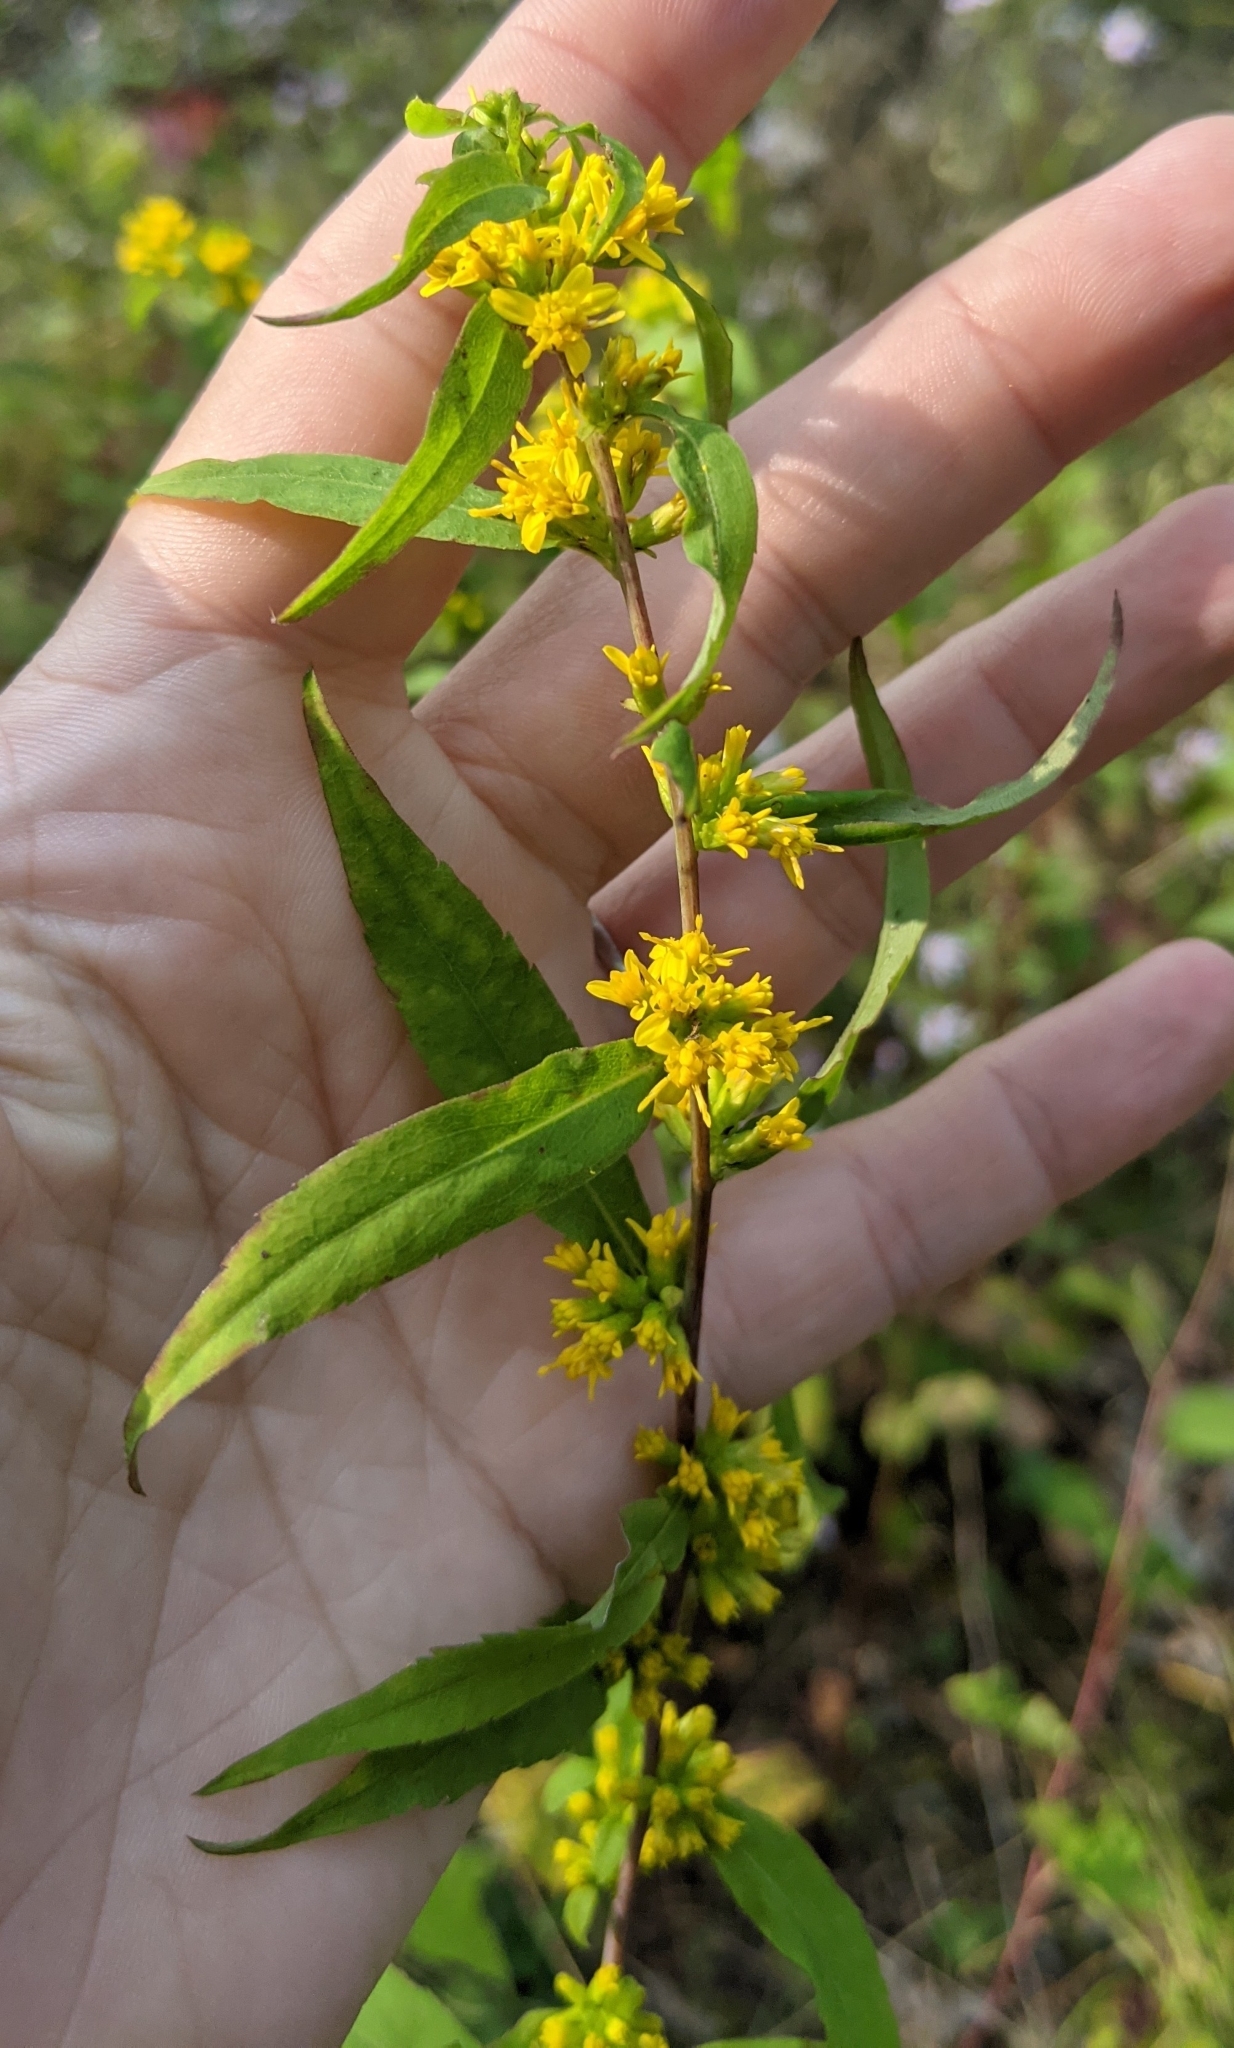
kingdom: Plantae
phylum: Tracheophyta
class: Magnoliopsida
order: Asterales
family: Asteraceae
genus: Solidago
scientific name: Solidago caesia
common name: Woodland goldenrod
